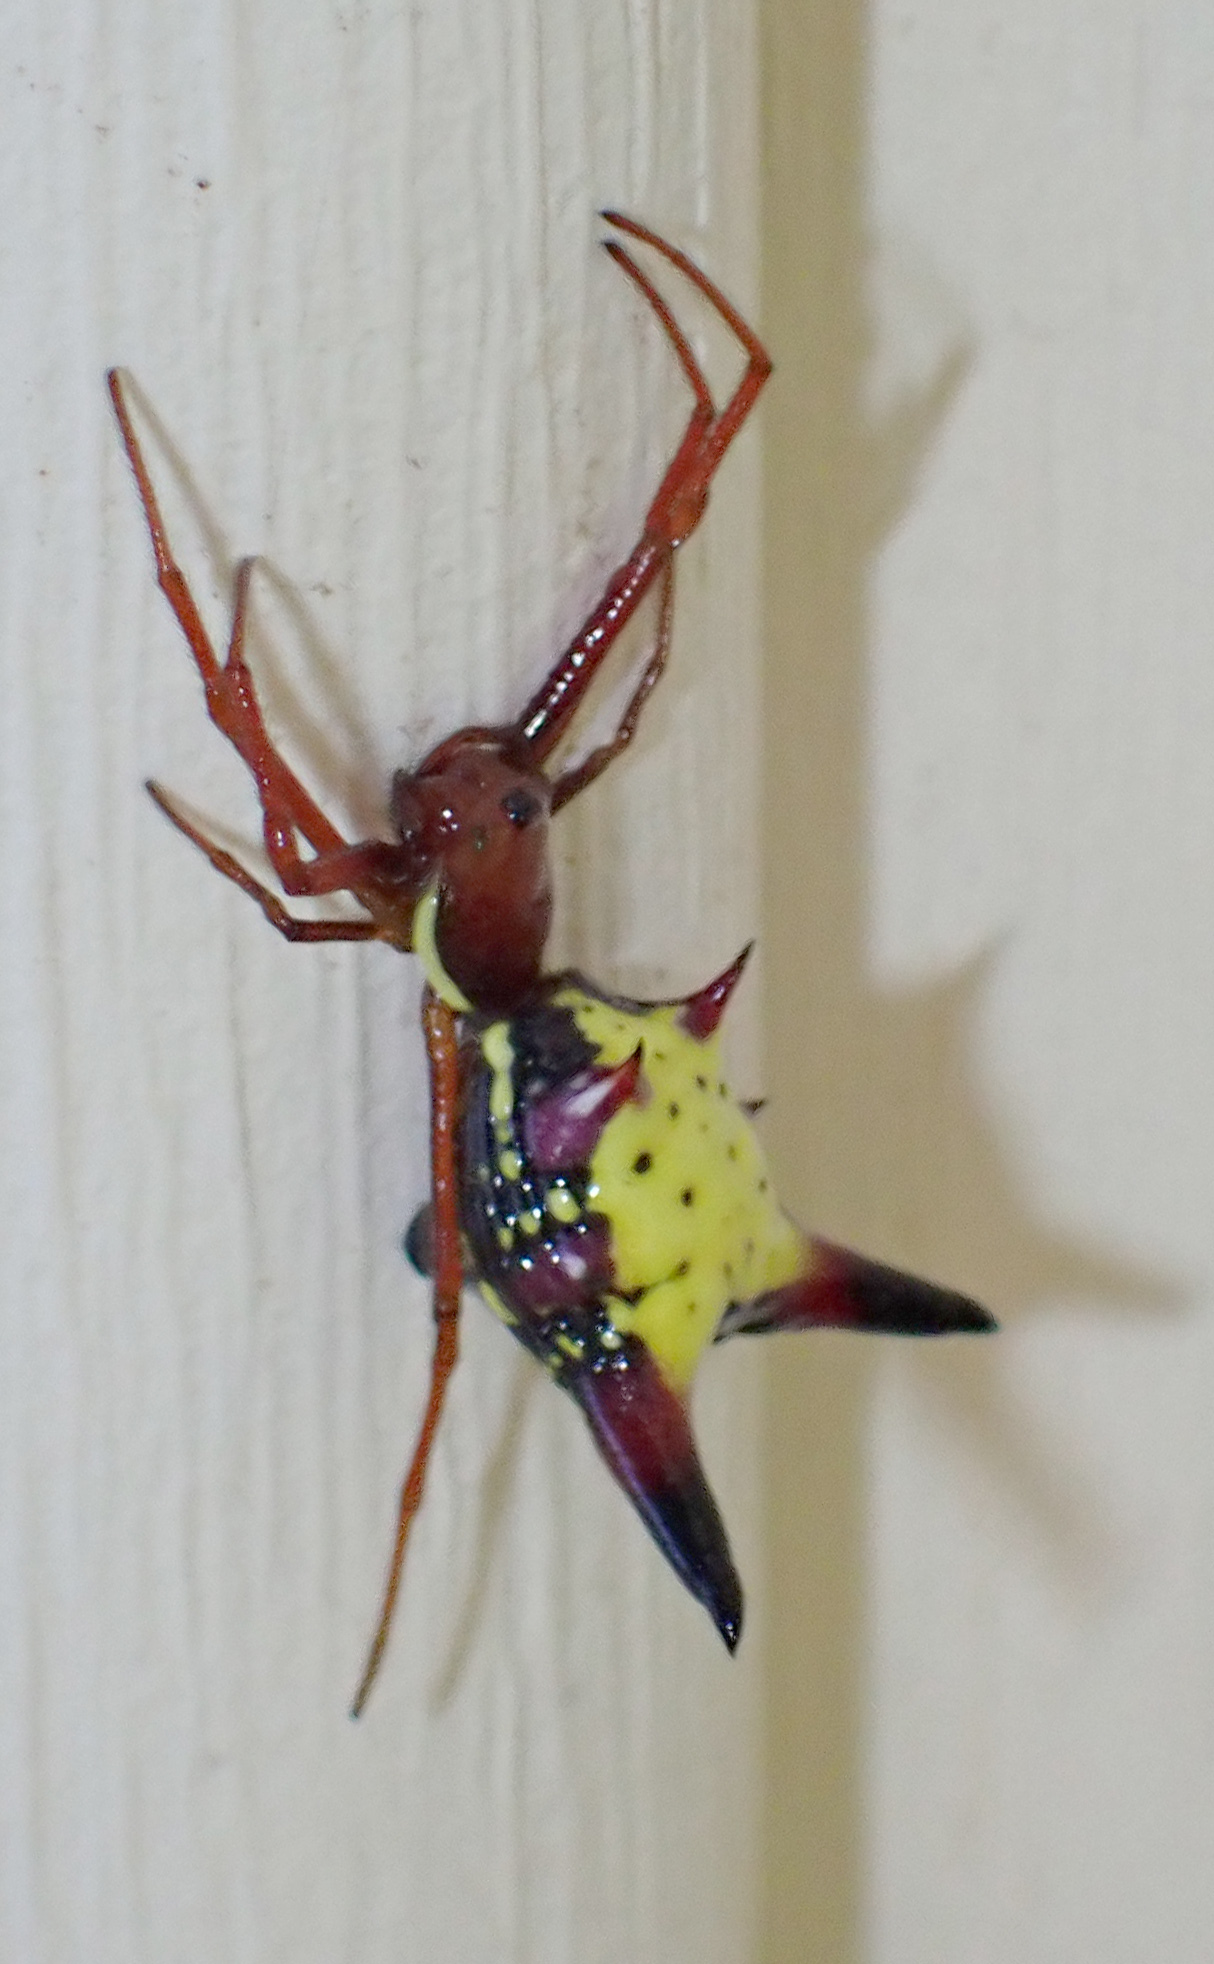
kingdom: Animalia
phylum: Arthropoda
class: Arachnida
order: Araneae
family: Araneidae
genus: Micrathena
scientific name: Micrathena sagittata
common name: Orb weavers
